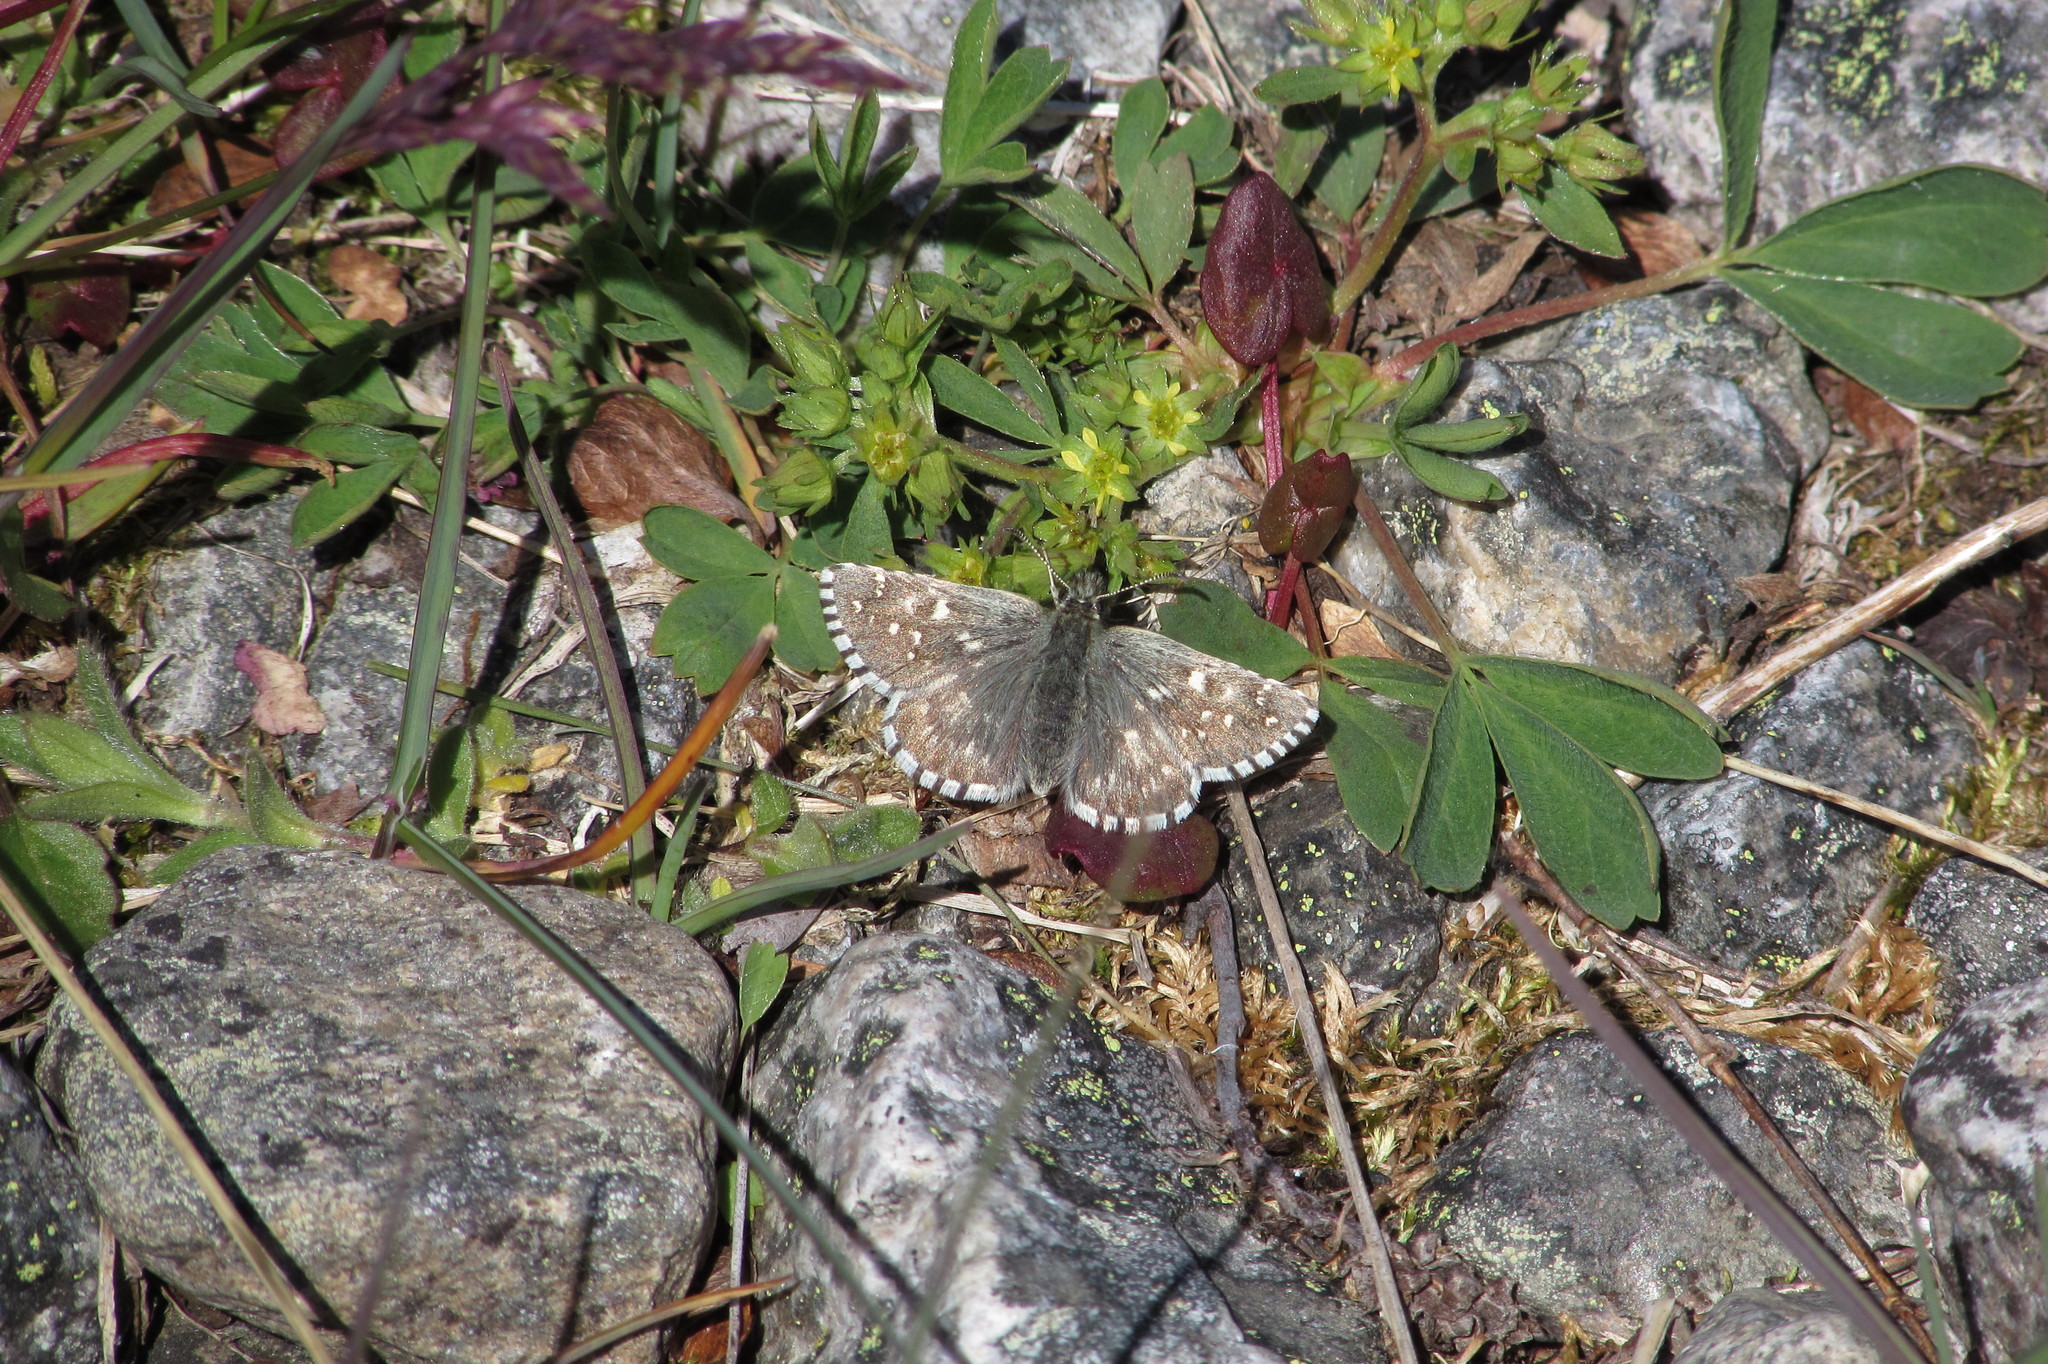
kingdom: Animalia
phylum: Arthropoda
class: Insecta
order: Lepidoptera
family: Hesperiidae
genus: Pyrgus
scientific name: Pyrgus centaureae
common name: Northern grizzled skipper
